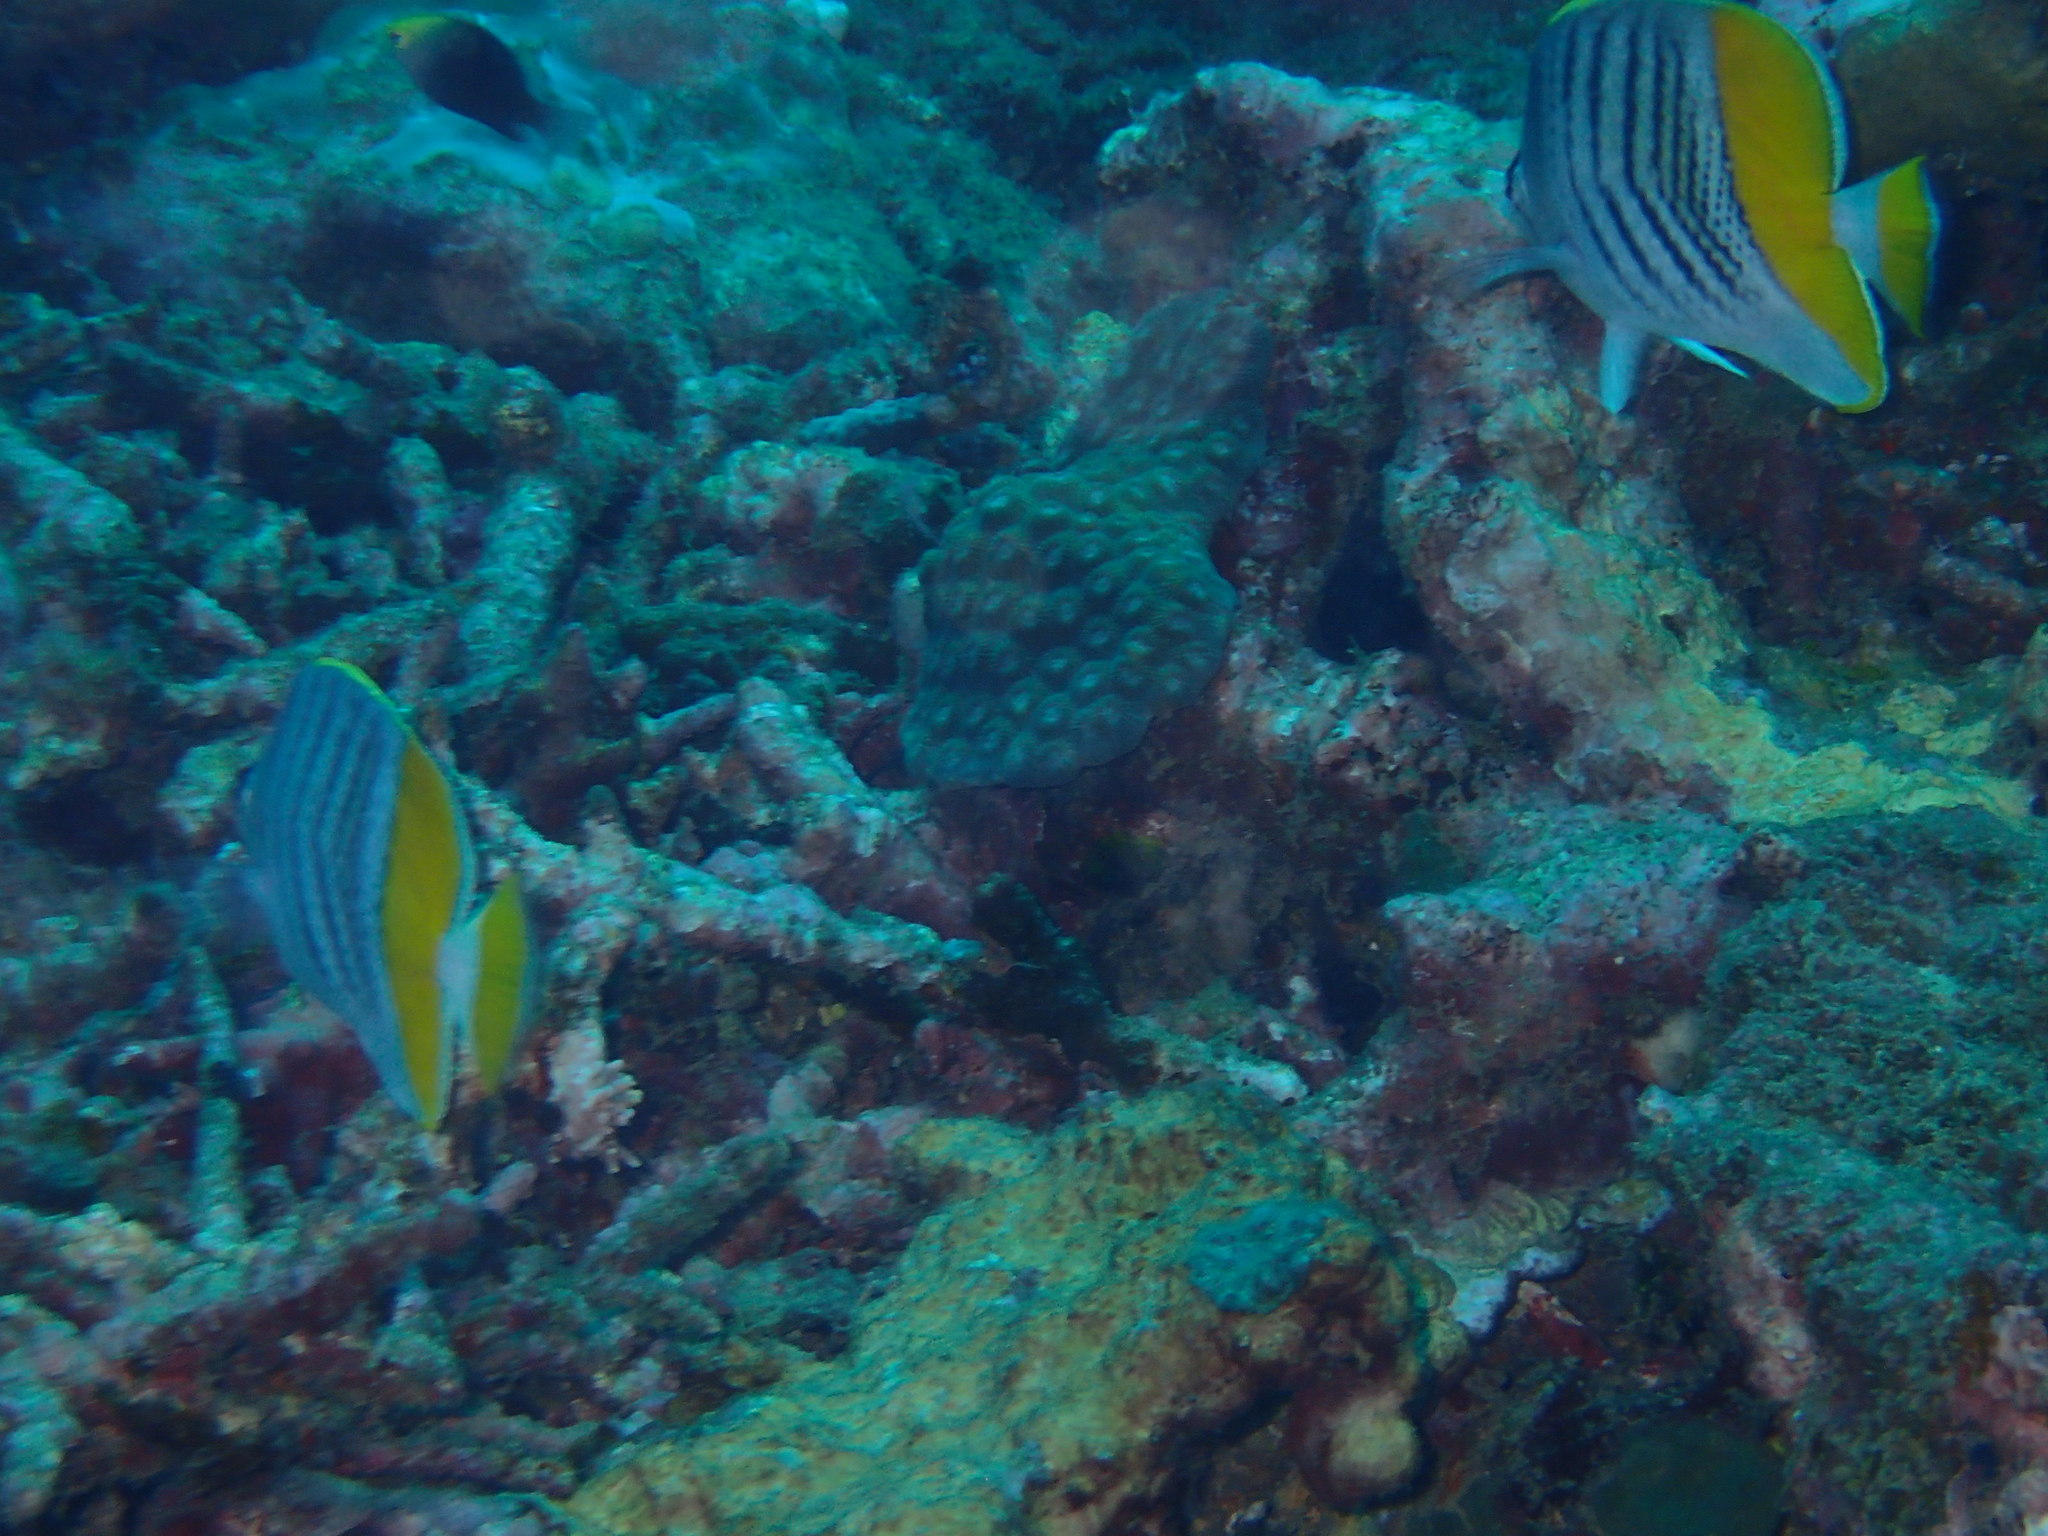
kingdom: Animalia
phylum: Chordata
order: Perciformes
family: Chaetodontidae
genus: Chaetodon
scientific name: Chaetodon mertensii
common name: Merten's butterflyfish
